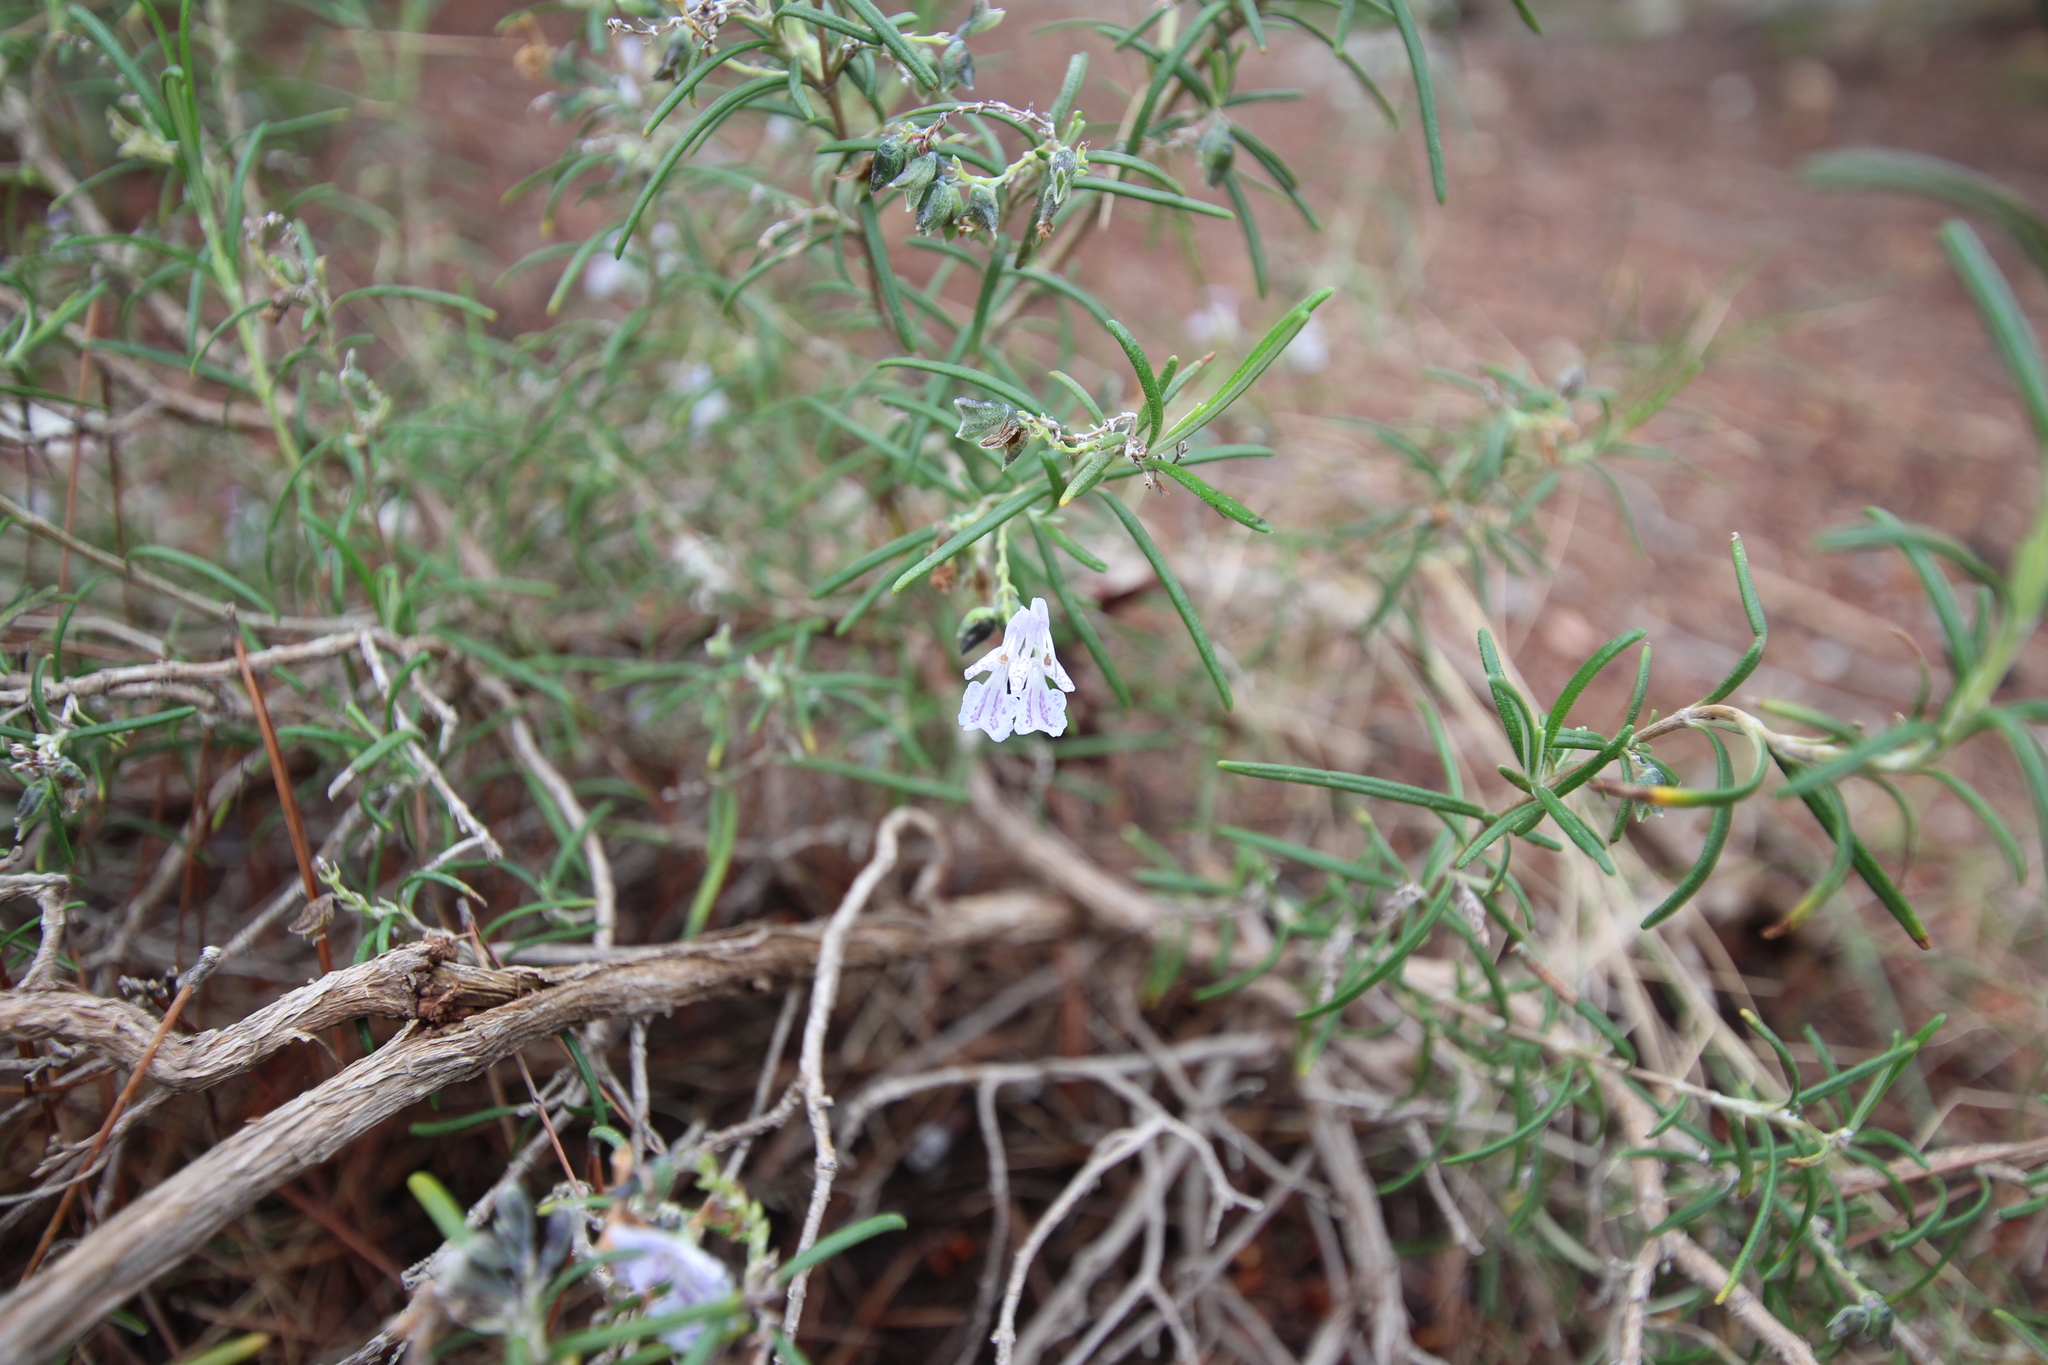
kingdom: Plantae
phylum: Tracheophyta
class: Magnoliopsida
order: Lamiales
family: Lamiaceae
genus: Salvia
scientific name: Salvia rosmarinus
